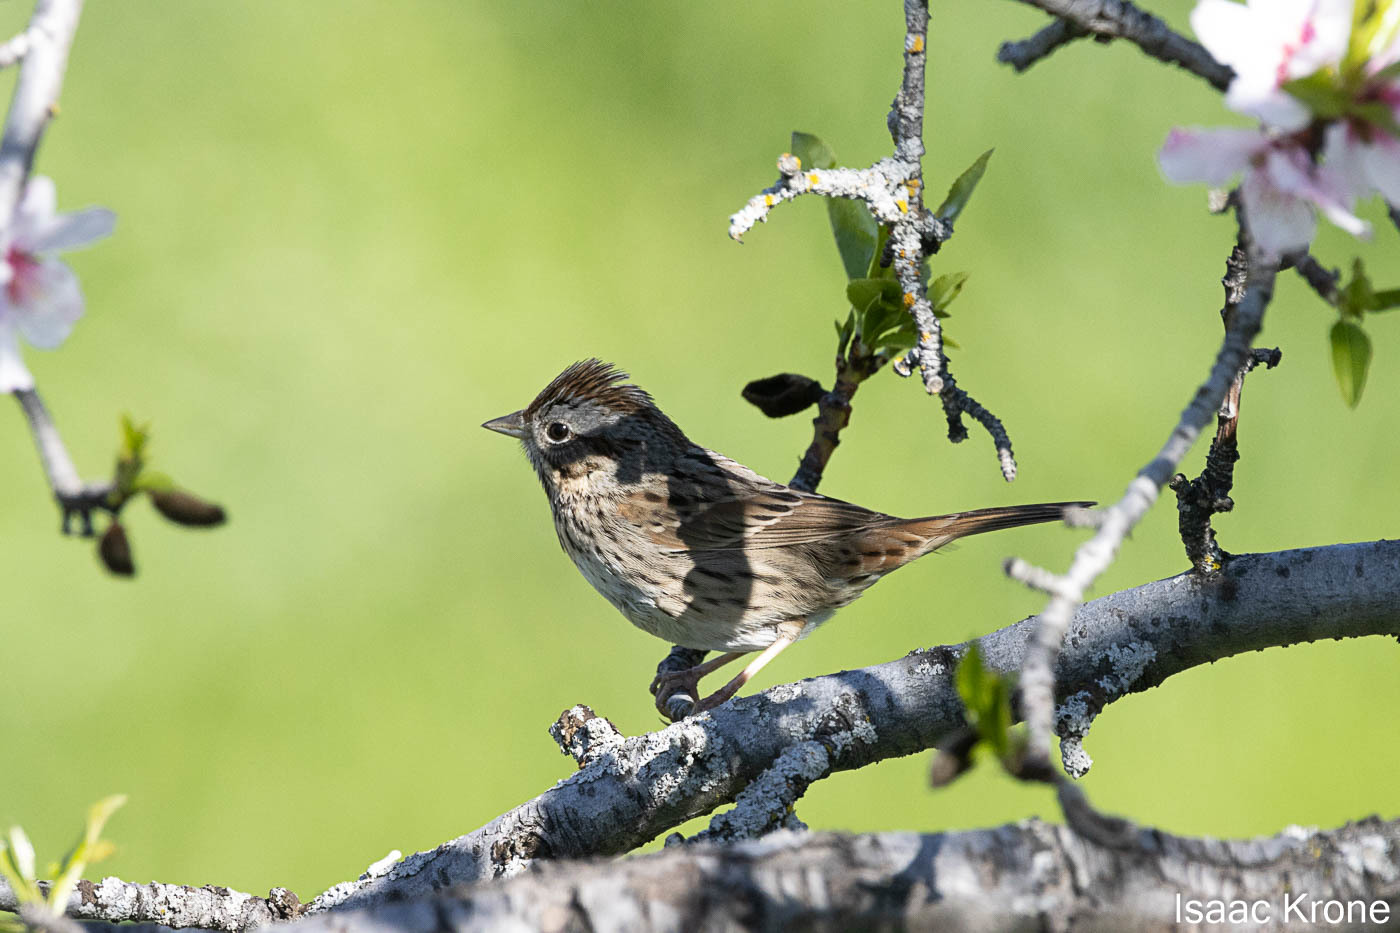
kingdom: Animalia
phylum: Chordata
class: Aves
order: Passeriformes
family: Passerellidae
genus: Melospiza
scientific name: Melospiza lincolnii
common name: Lincoln's sparrow
